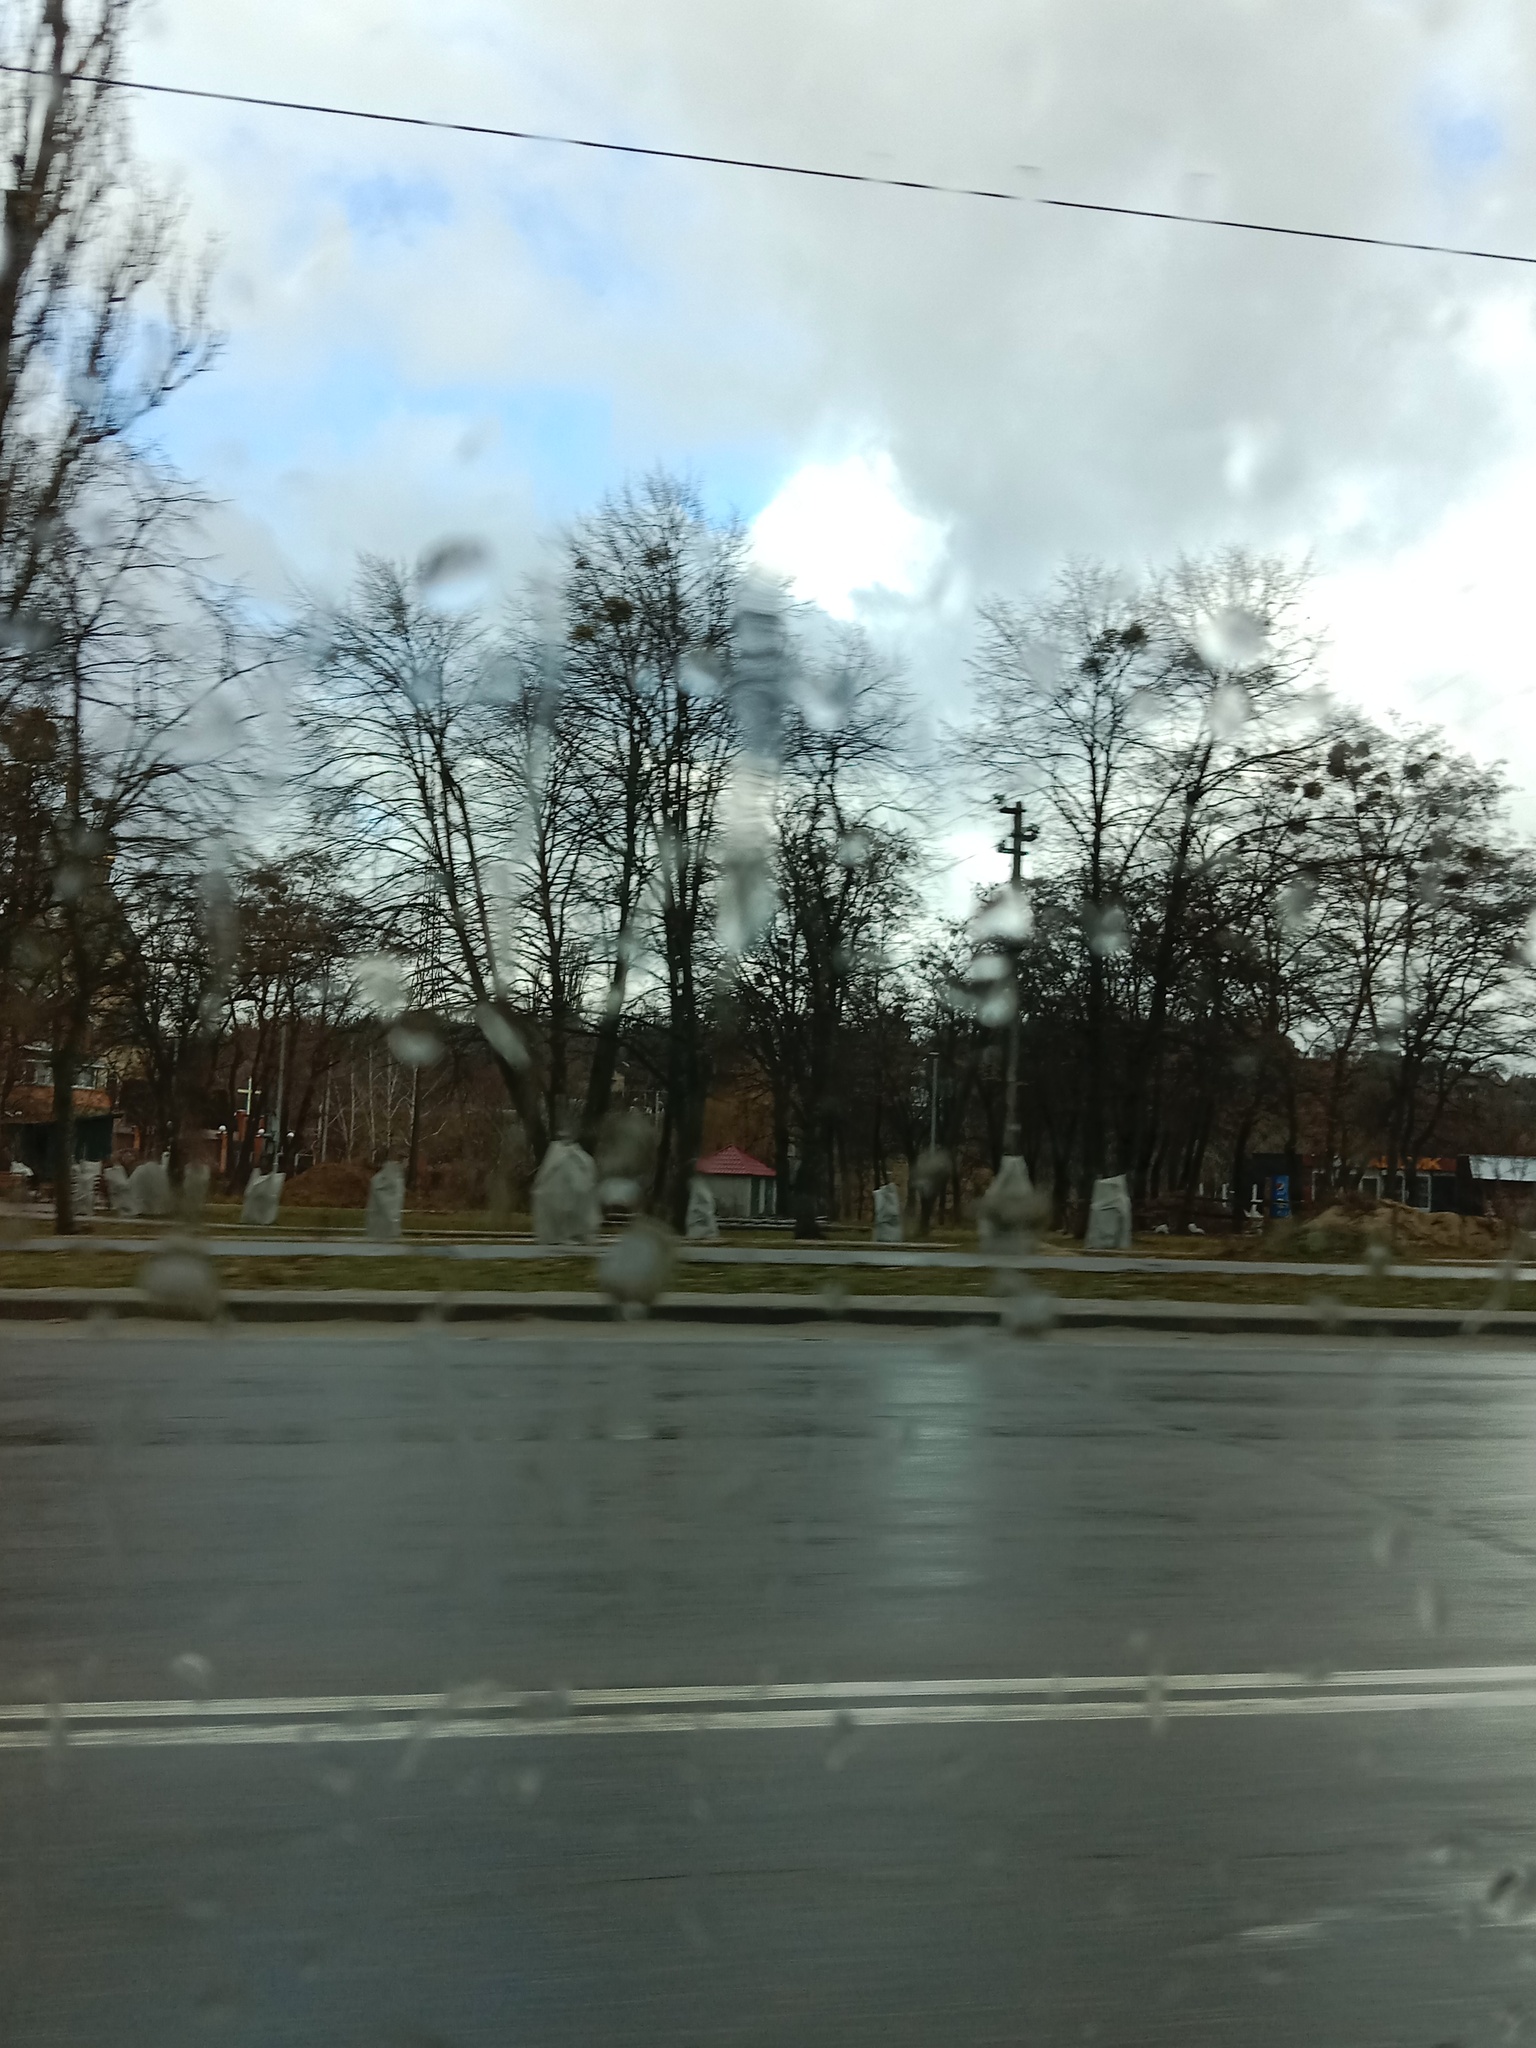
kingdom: Plantae
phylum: Tracheophyta
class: Magnoliopsida
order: Santalales
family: Viscaceae
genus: Viscum
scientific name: Viscum album
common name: Mistletoe
